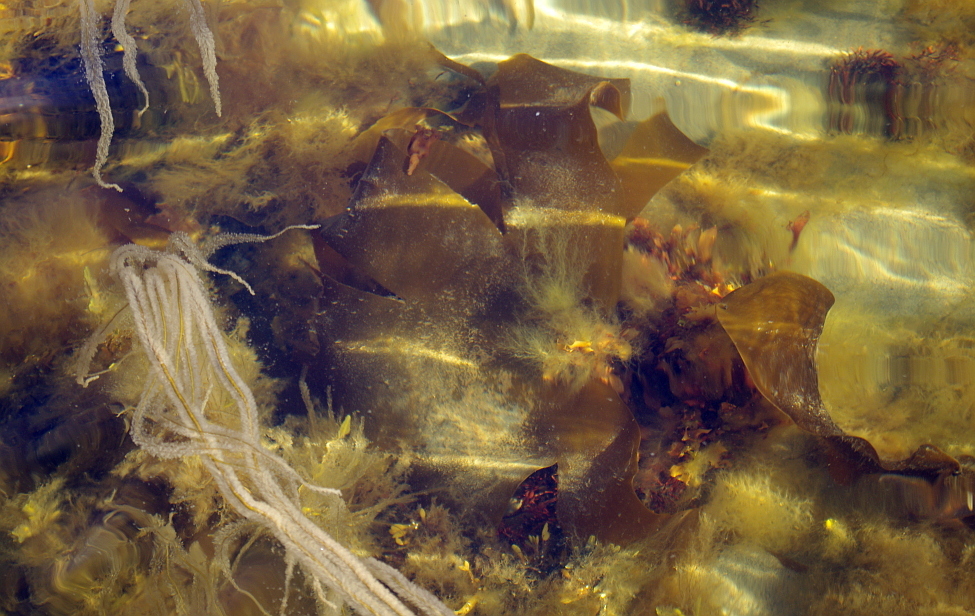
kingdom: Chromista
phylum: Ochrophyta
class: Phaeophyceae
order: Laminariales
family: Laminariaceae
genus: Laminaria
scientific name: Laminaria digitata
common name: Oarweed
